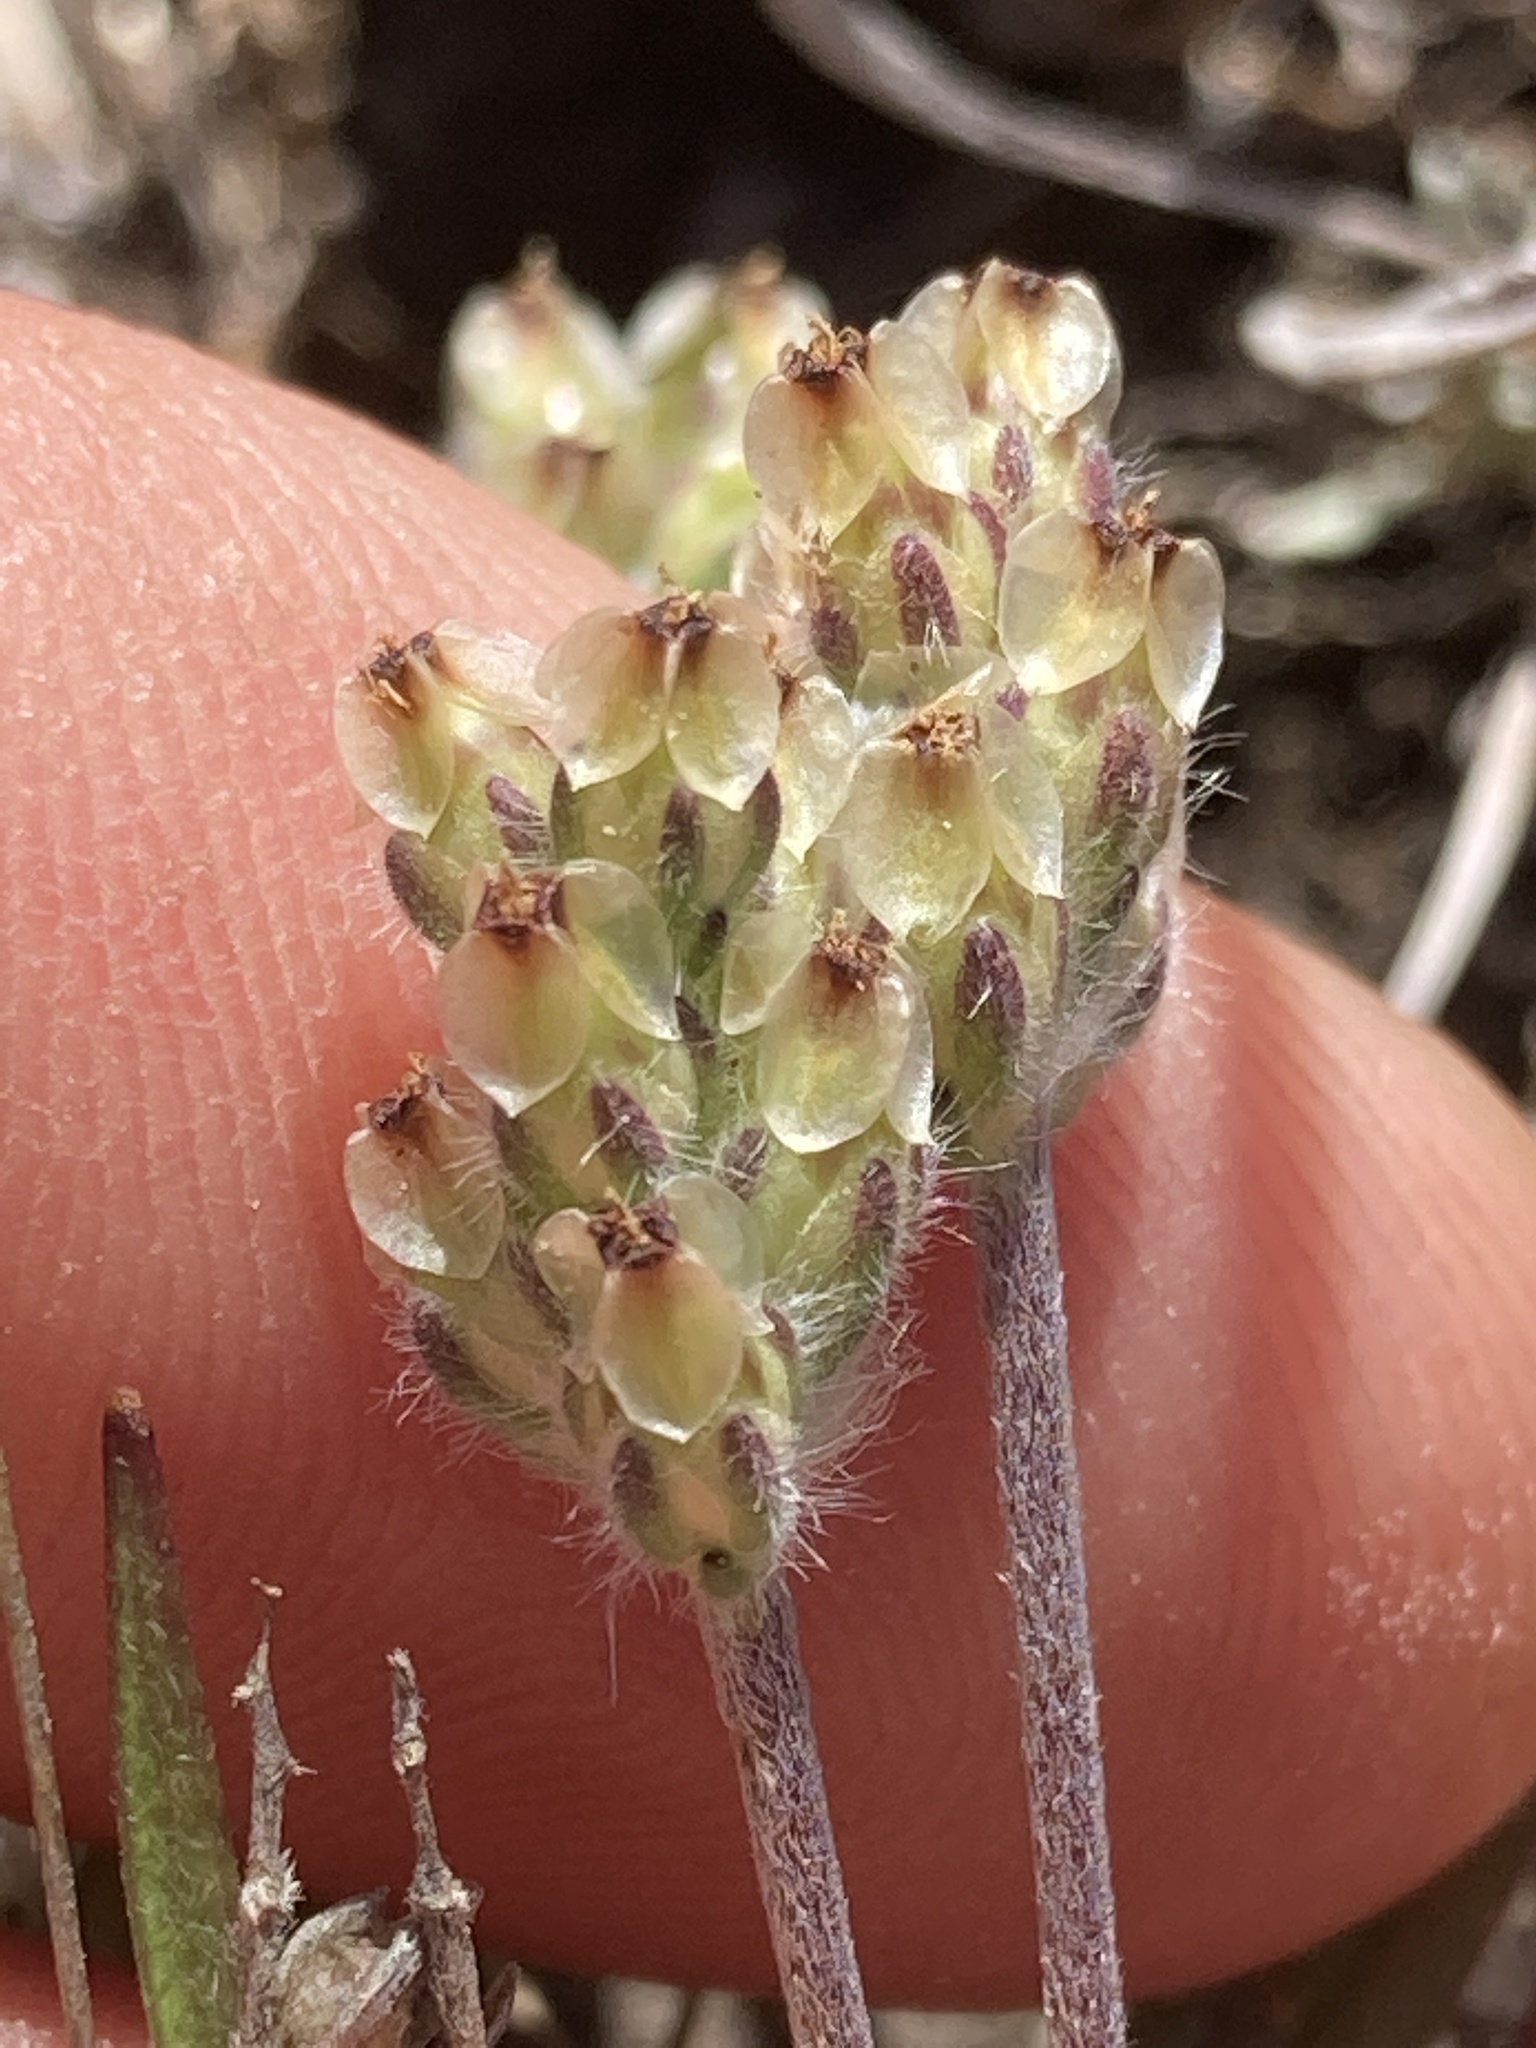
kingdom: Plantae
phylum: Tracheophyta
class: Magnoliopsida
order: Lamiales
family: Plantaginaceae
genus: Plantago
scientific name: Plantago erecta
